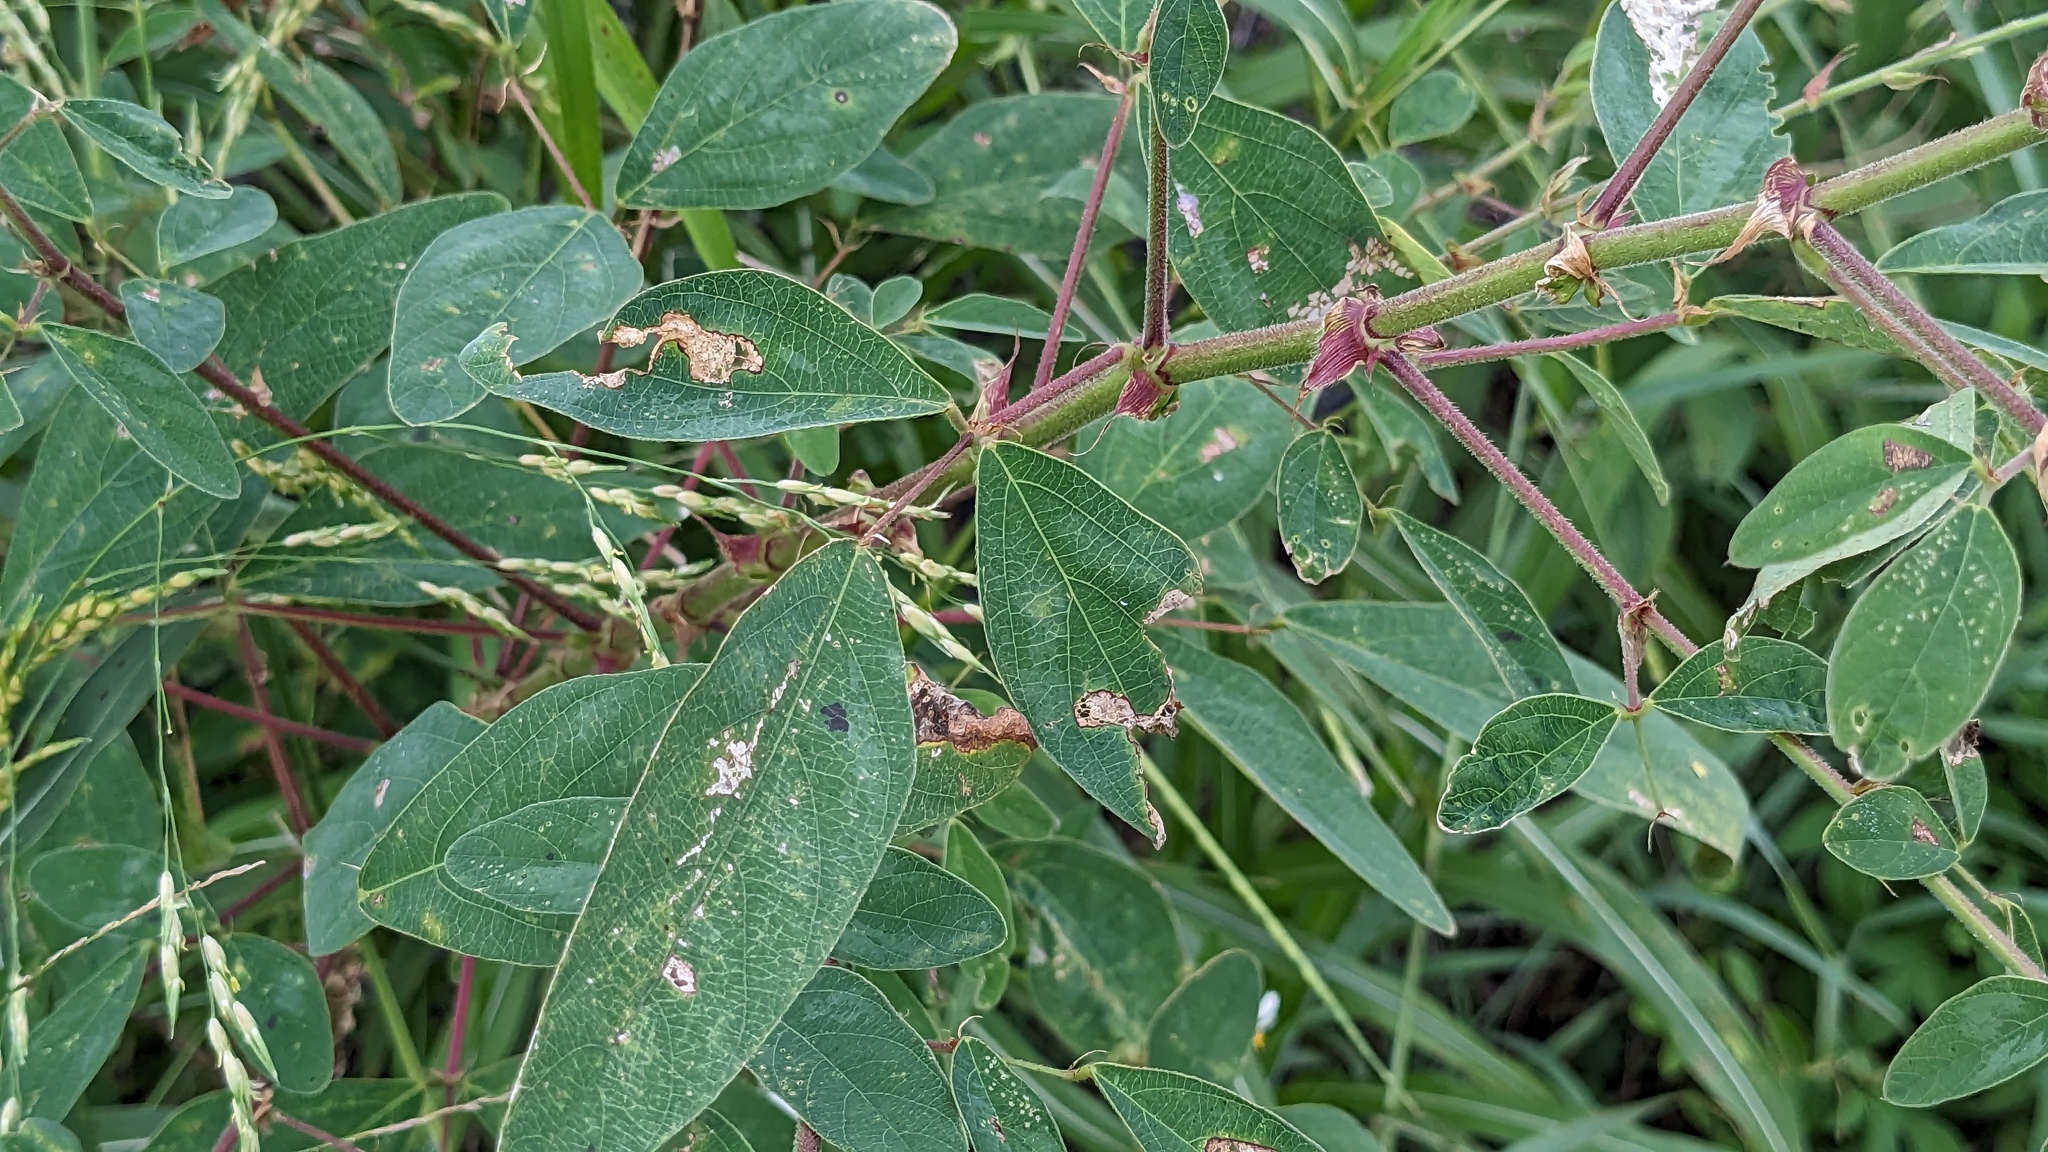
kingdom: Plantae
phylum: Tracheophyta
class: Magnoliopsida
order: Fabales
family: Fabaceae
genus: Desmodium
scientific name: Desmodium tortuosum
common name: Dixie ticktrefoil
